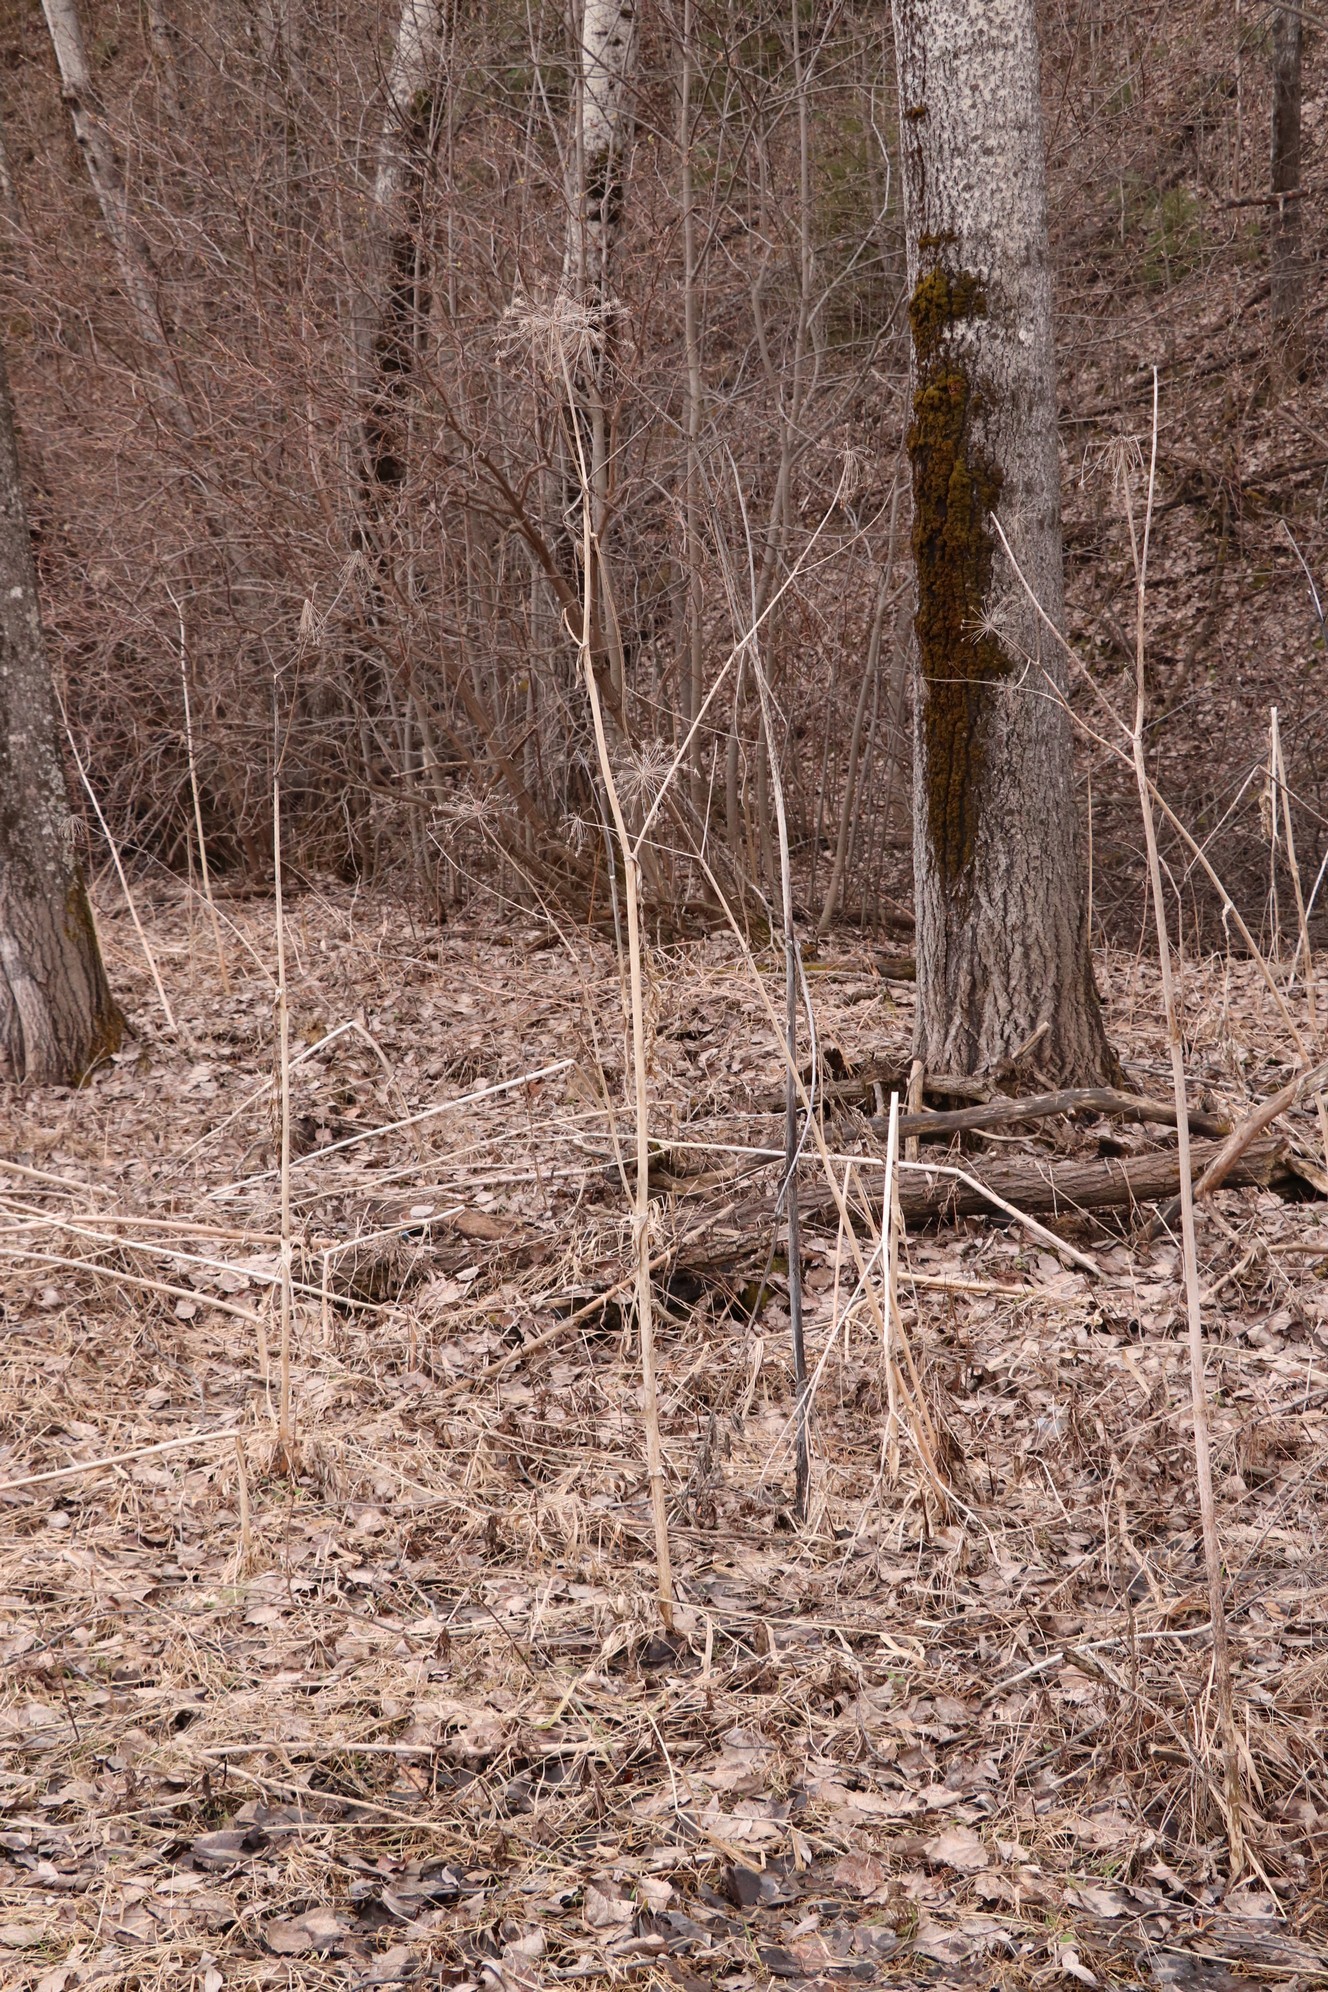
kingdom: Plantae
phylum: Tracheophyta
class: Magnoliopsida
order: Apiales
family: Apiaceae
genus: Angelica
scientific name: Angelica sylvestris
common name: Wild angelica
